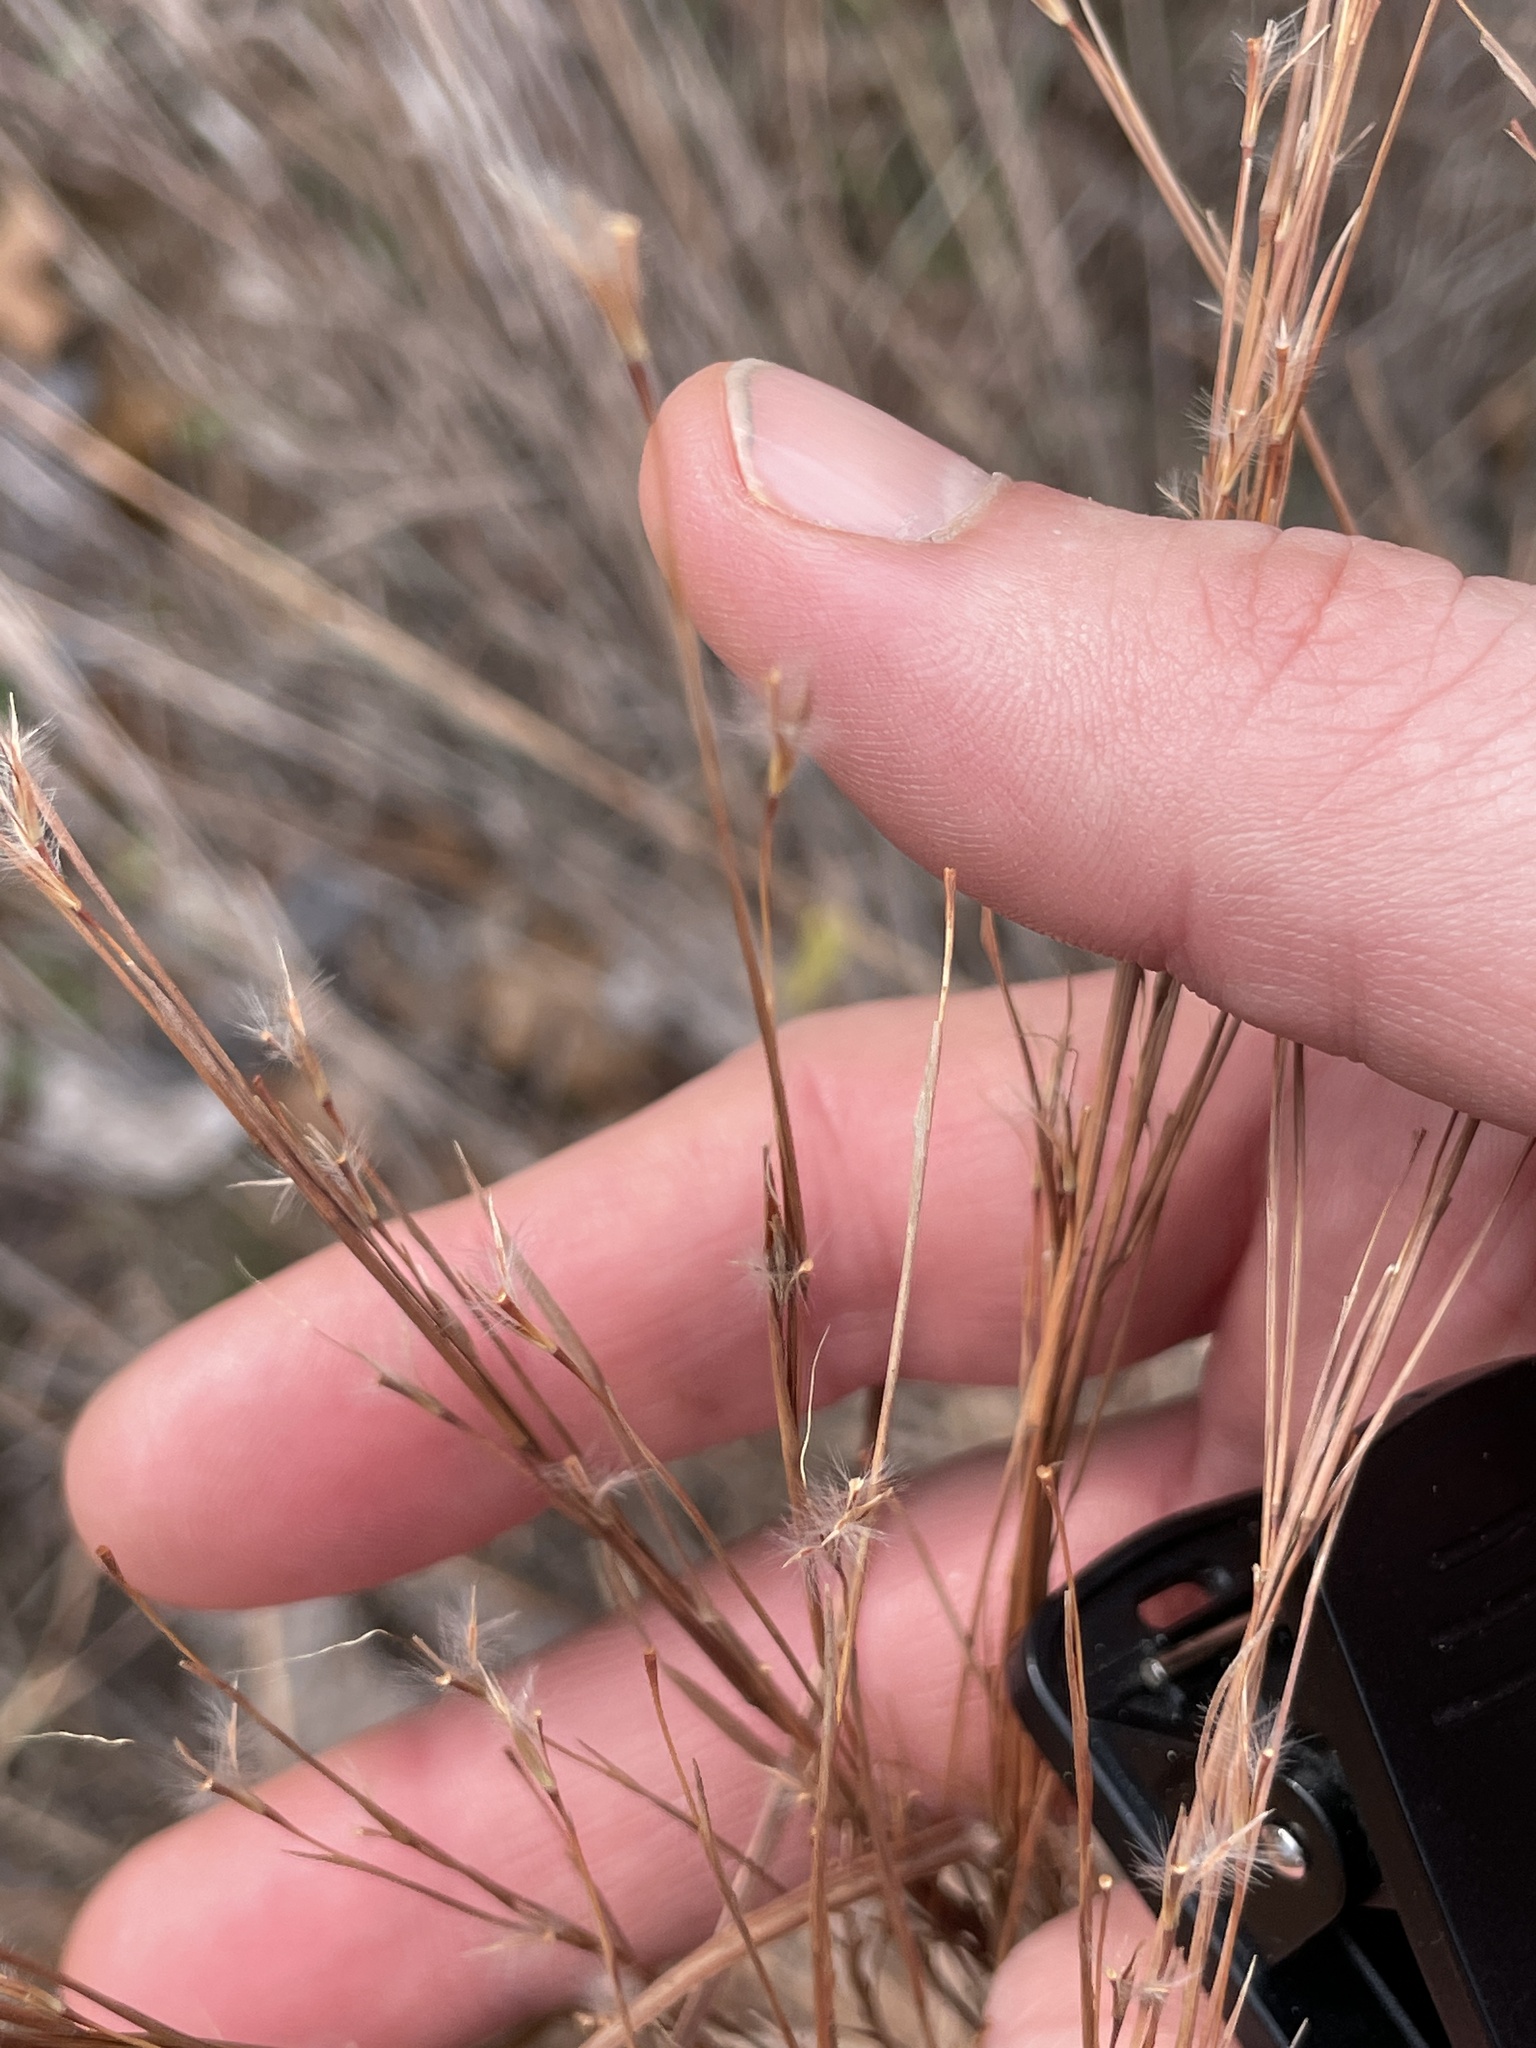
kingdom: Plantae
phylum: Tracheophyta
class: Liliopsida
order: Poales
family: Poaceae
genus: Schizachyrium
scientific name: Schizachyrium scoparium
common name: Little bluestem
